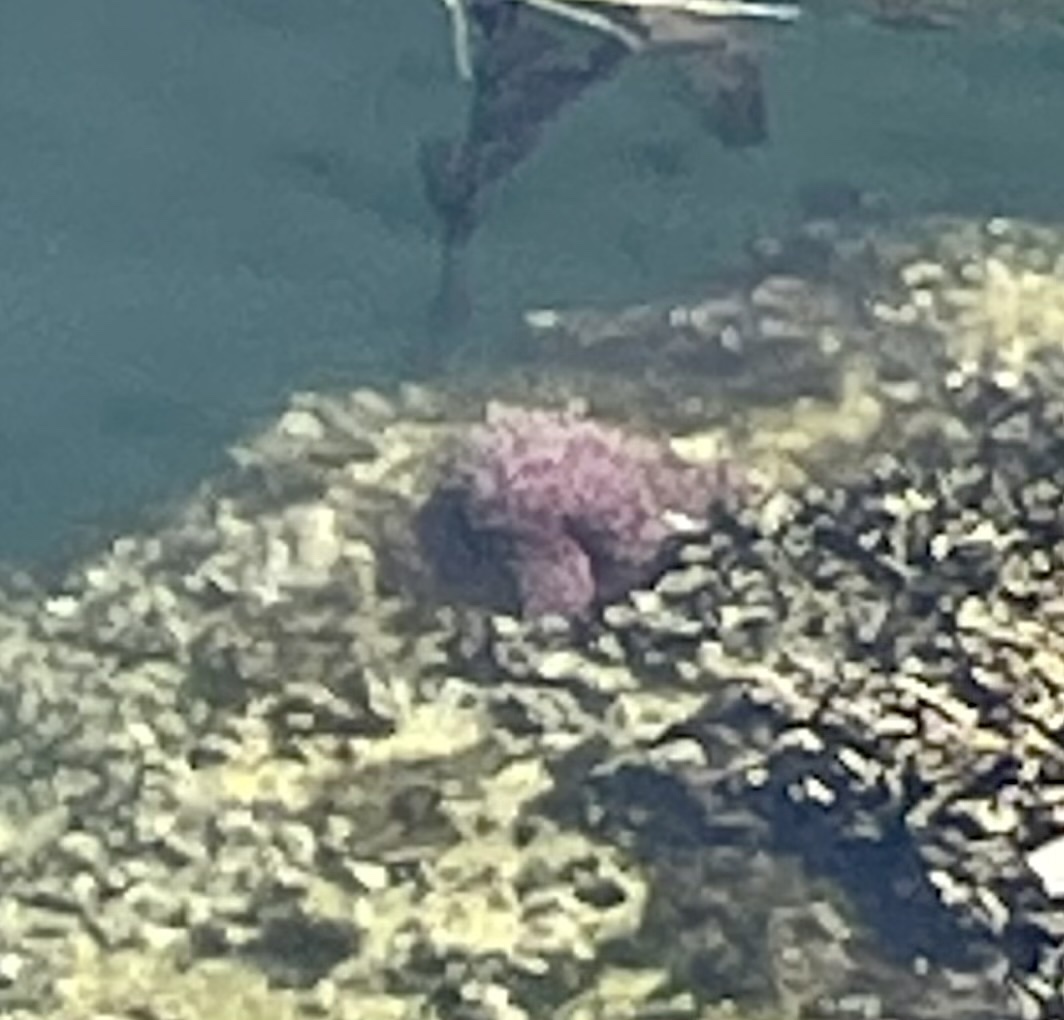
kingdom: Animalia
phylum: Echinodermata
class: Asteroidea
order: Forcipulatida
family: Asteriidae
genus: Pisaster
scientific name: Pisaster ochraceus
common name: Ochre stars
